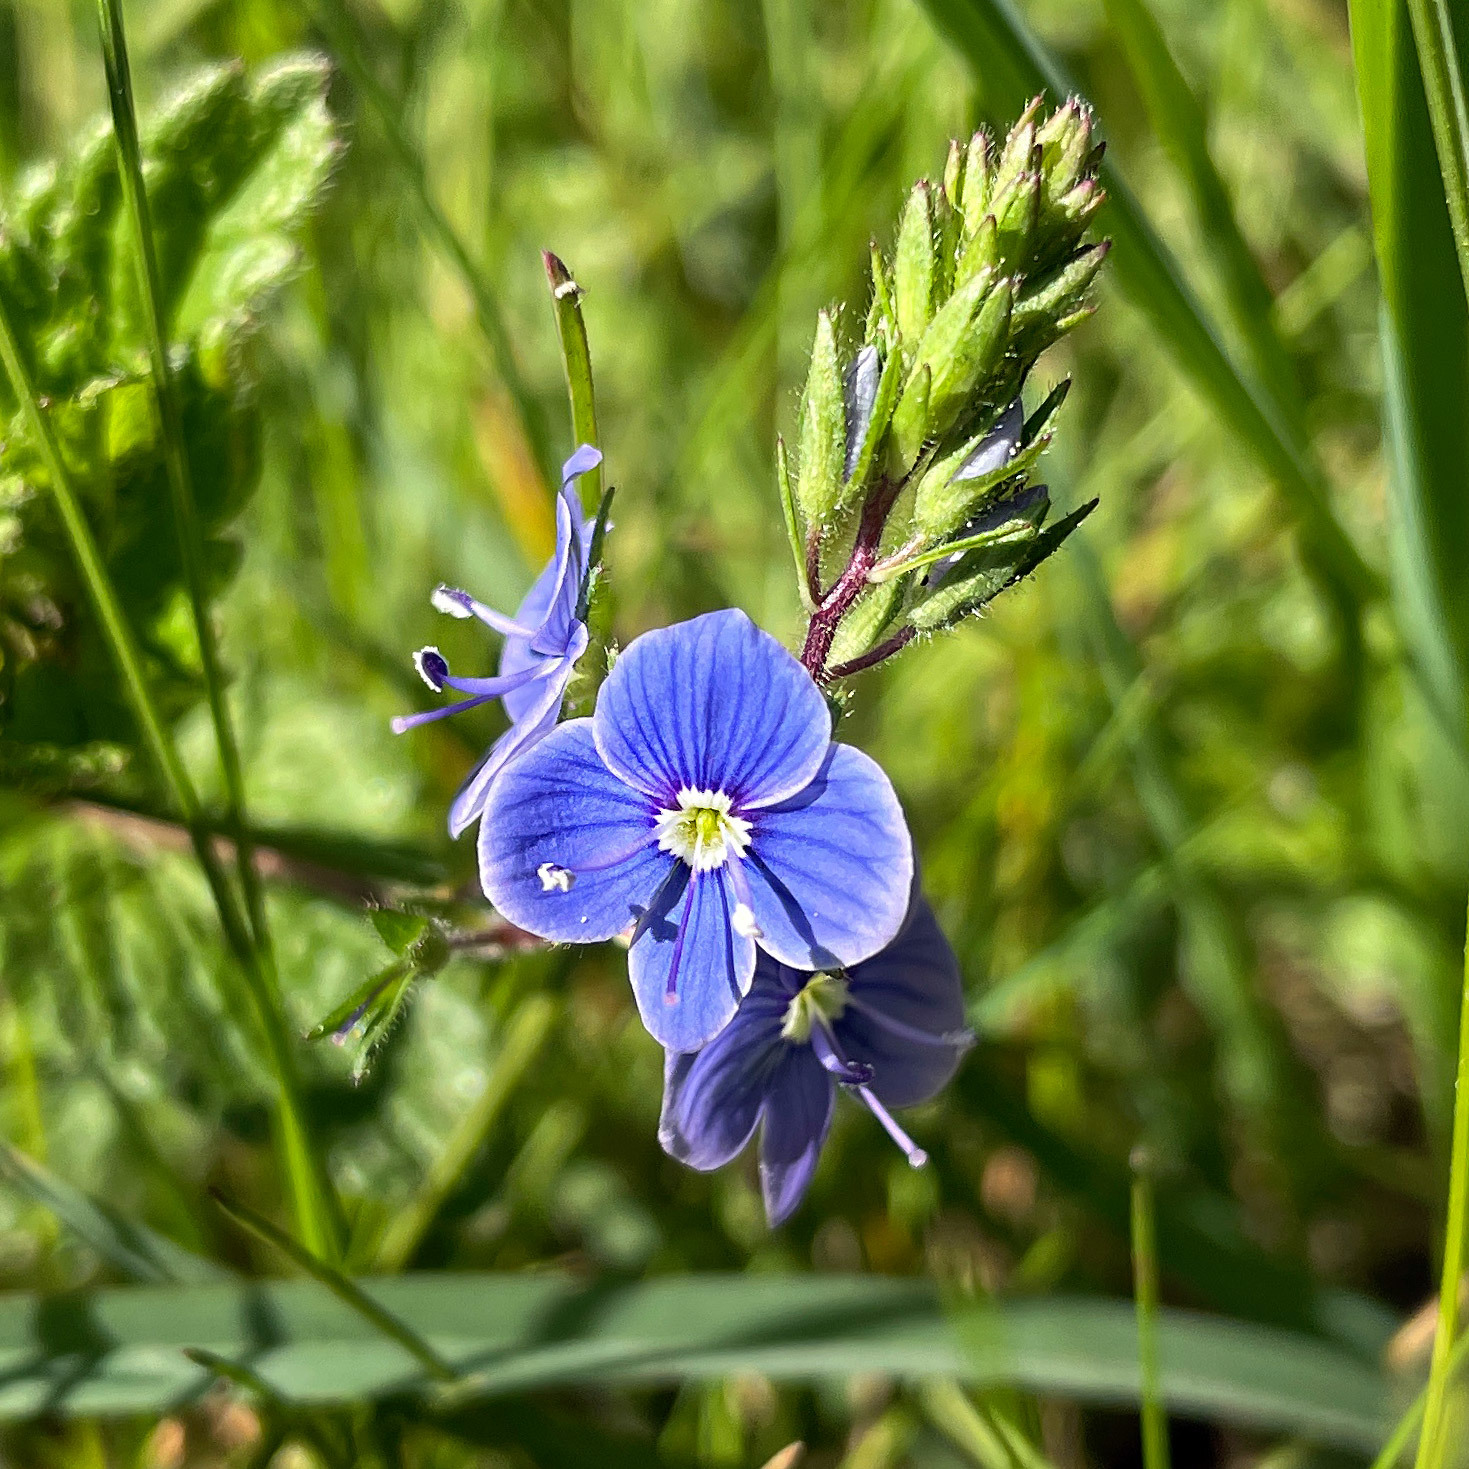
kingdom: Plantae
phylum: Tracheophyta
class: Magnoliopsida
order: Lamiales
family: Plantaginaceae
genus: Veronica
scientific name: Veronica chamaedrys
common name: Germander speedwell
